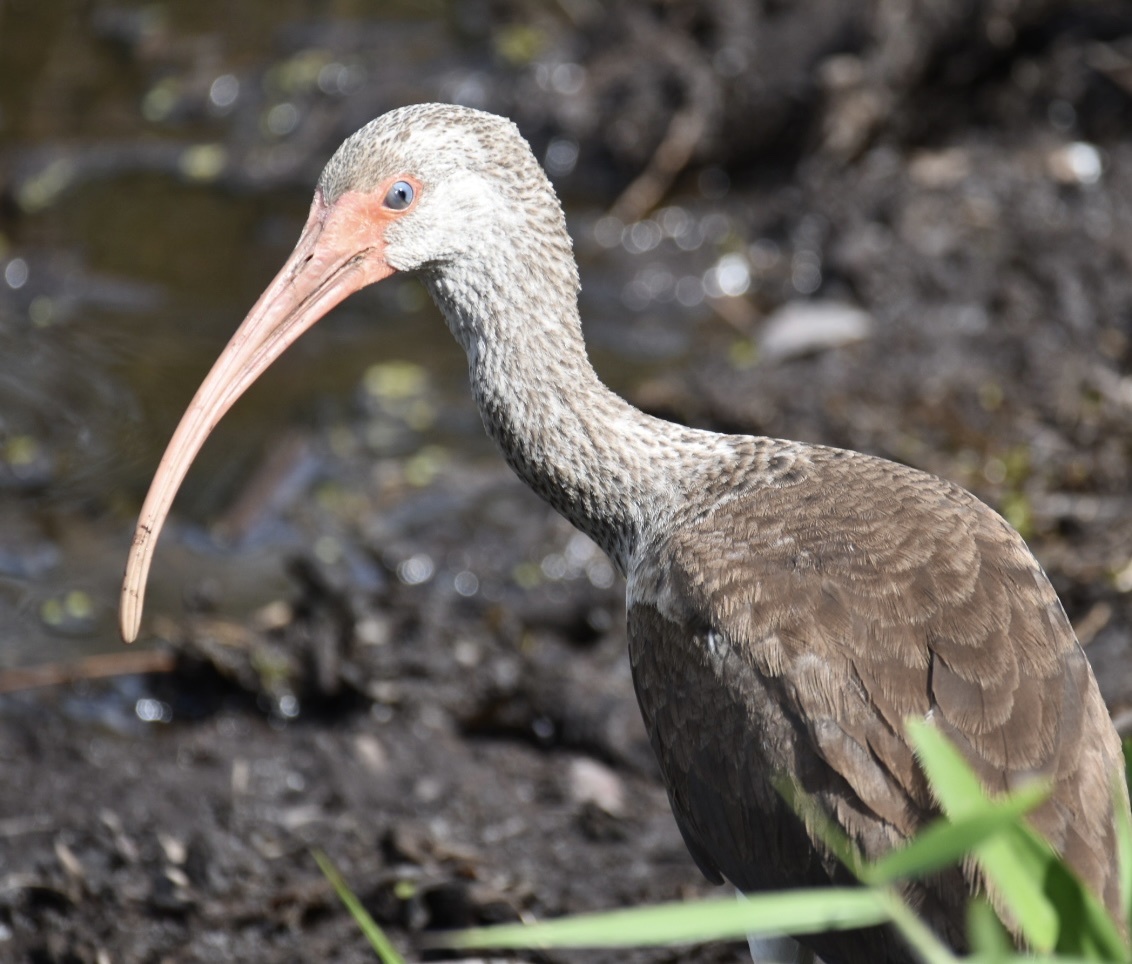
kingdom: Animalia
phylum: Chordata
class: Aves
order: Pelecaniformes
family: Threskiornithidae
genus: Eudocimus
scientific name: Eudocimus albus
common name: White ibis
